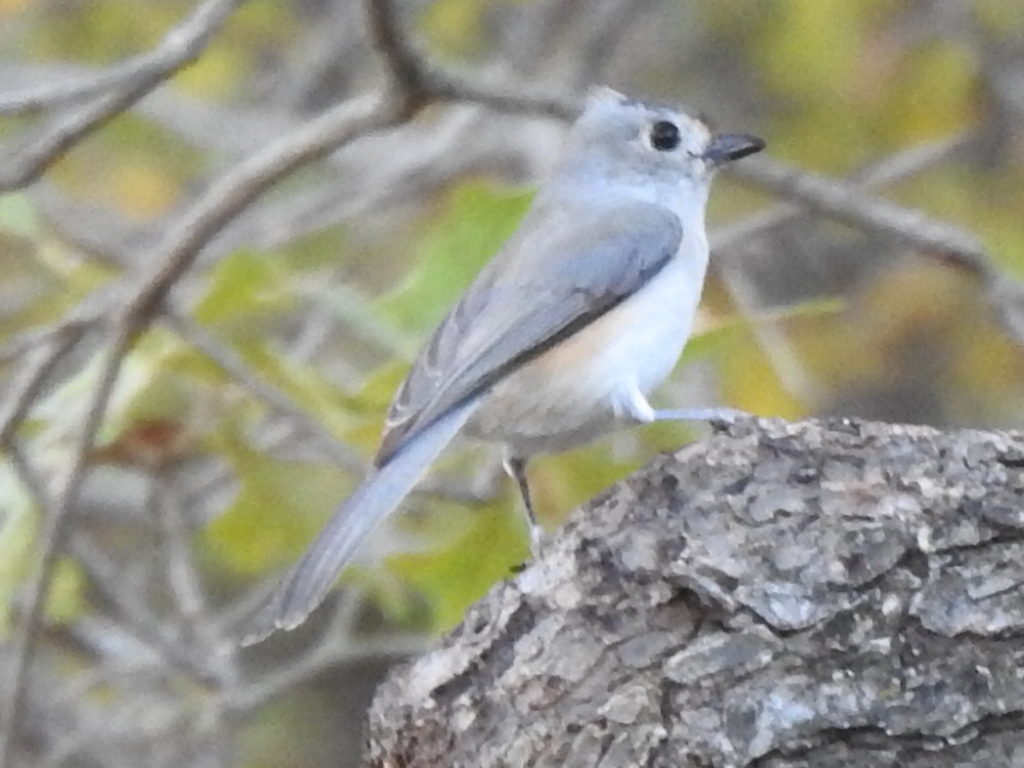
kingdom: Animalia
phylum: Chordata
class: Aves
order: Passeriformes
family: Paridae
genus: Baeolophus
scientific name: Baeolophus
